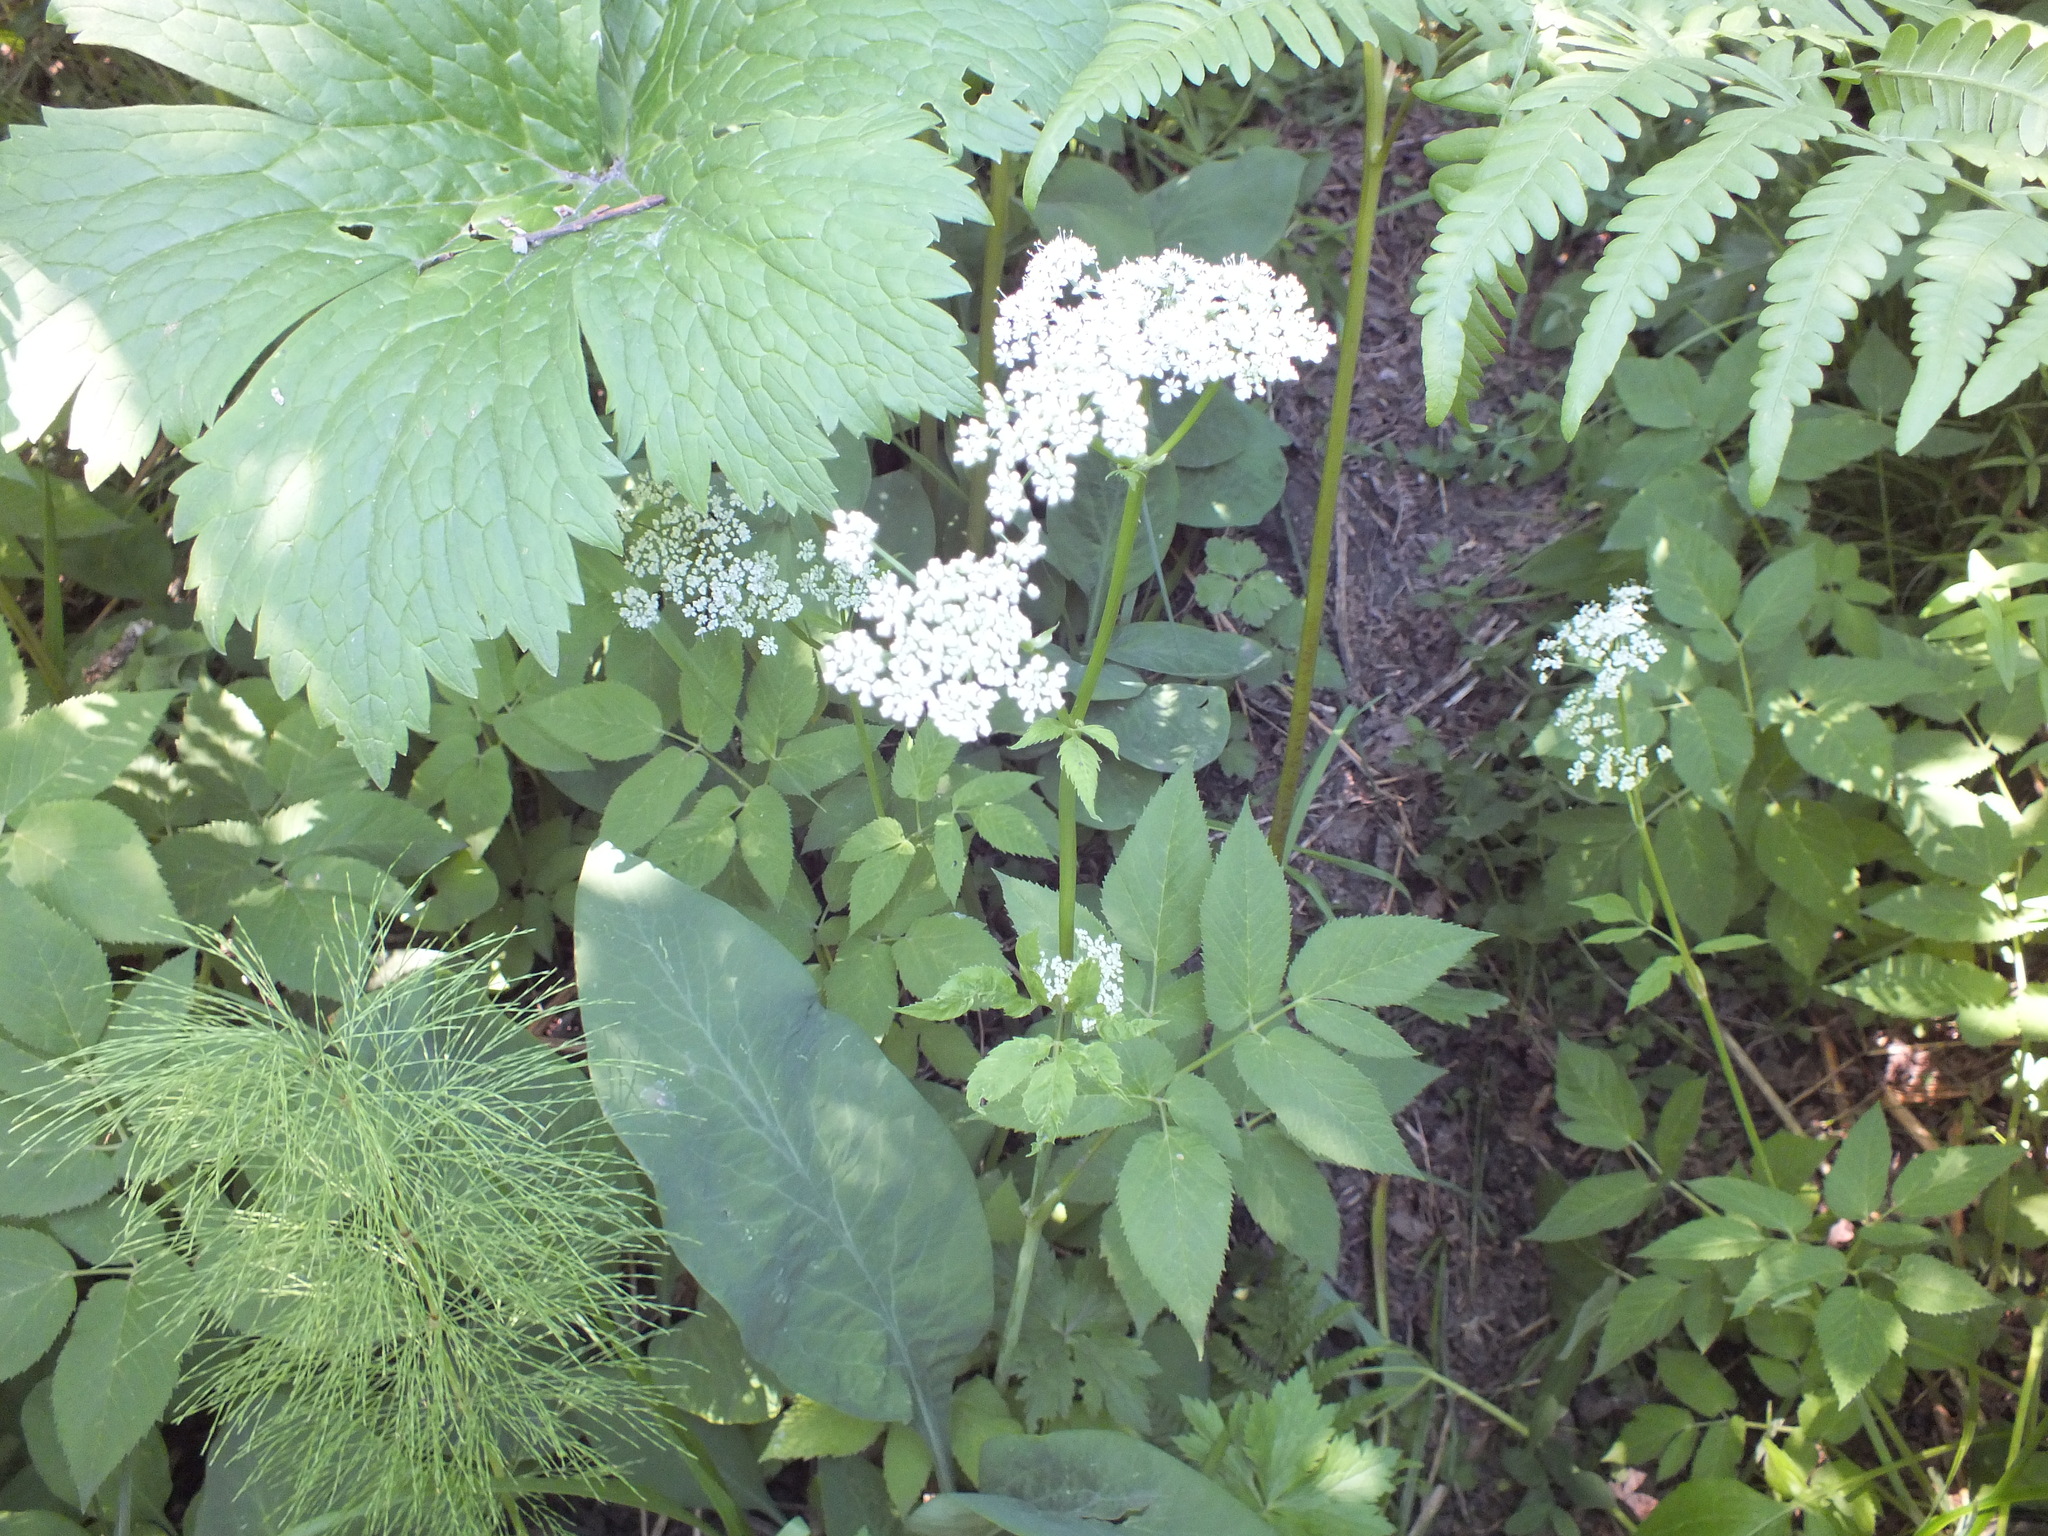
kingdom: Plantae
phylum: Tracheophyta
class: Magnoliopsida
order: Apiales
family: Apiaceae
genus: Aegopodium
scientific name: Aegopodium podagraria
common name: Ground-elder
